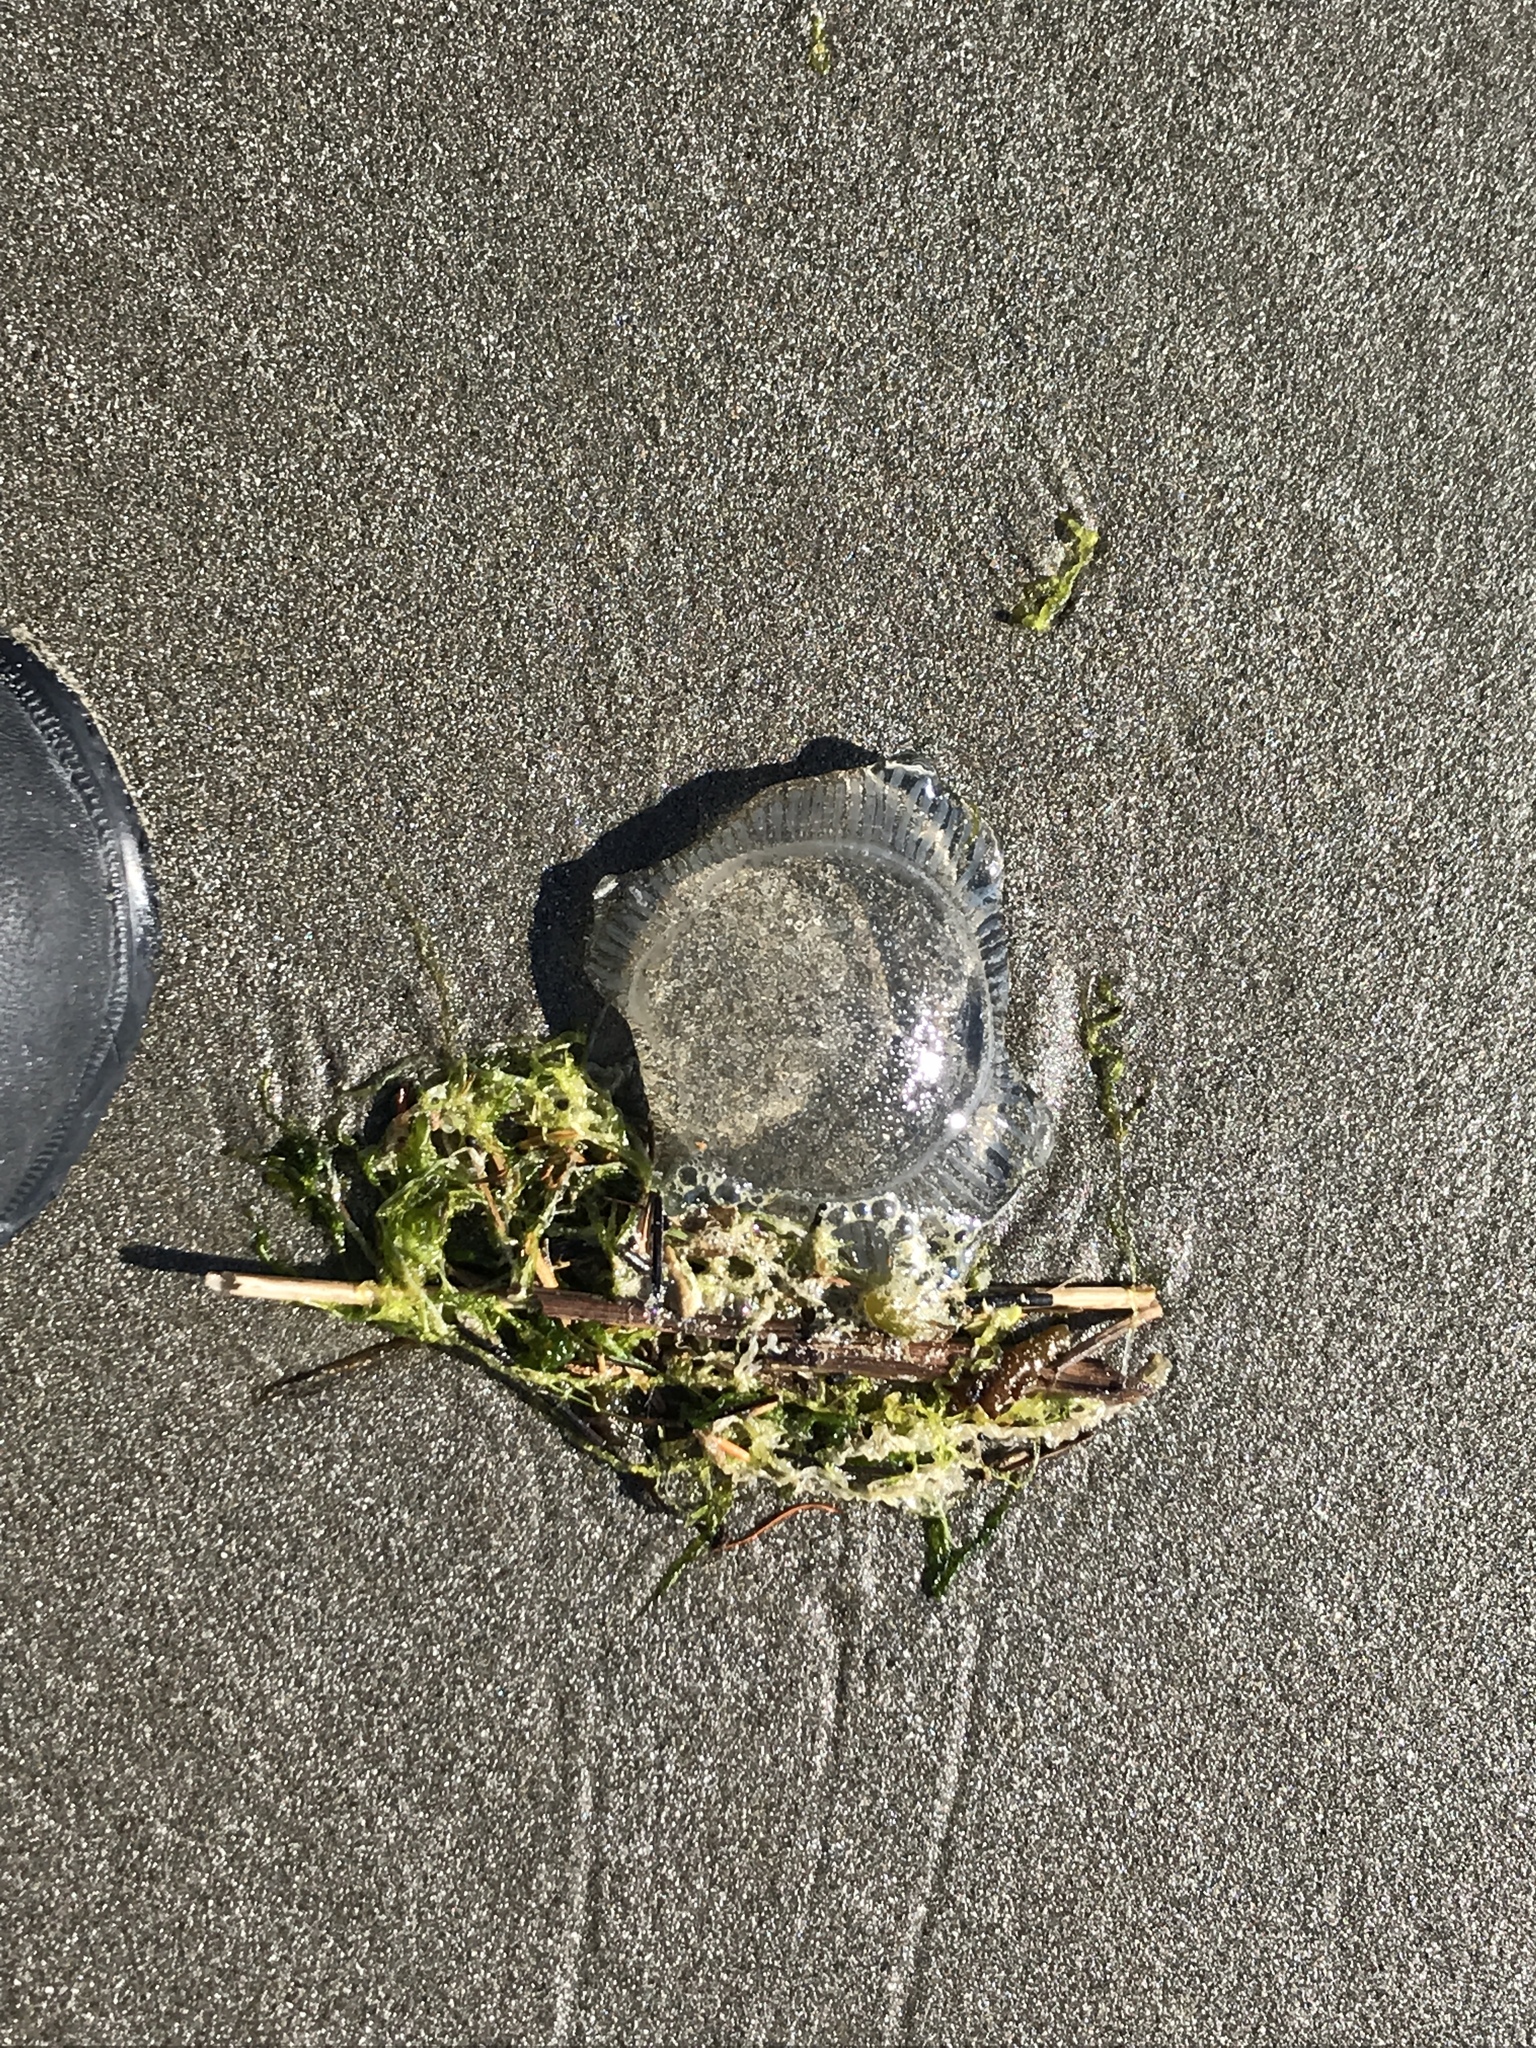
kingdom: Animalia
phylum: Cnidaria
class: Hydrozoa
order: Leptothecata
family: Aequoreidae
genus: Aequorea
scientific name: Aequorea victoria
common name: Water jellyfish
